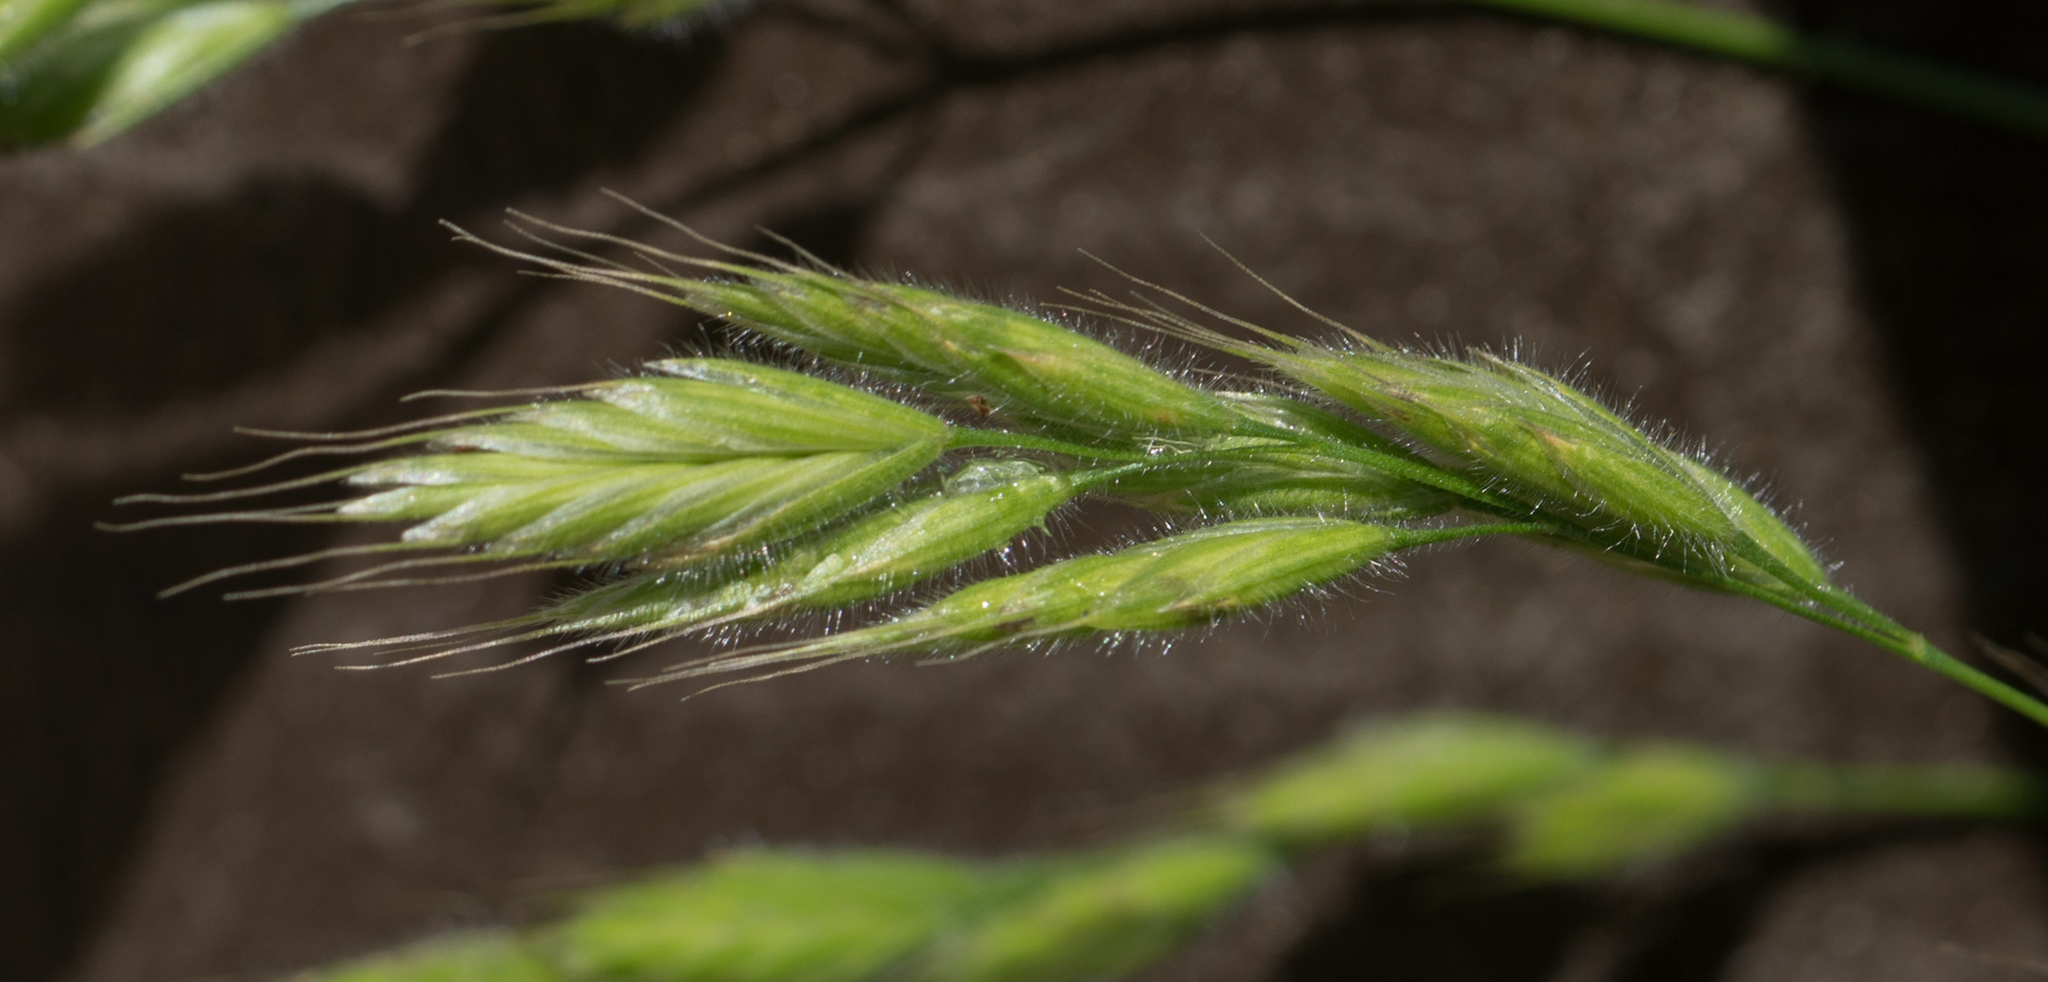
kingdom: Plantae
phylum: Tracheophyta
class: Liliopsida
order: Poales
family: Poaceae
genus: Bromus
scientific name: Bromus hordeaceus
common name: Soft brome
